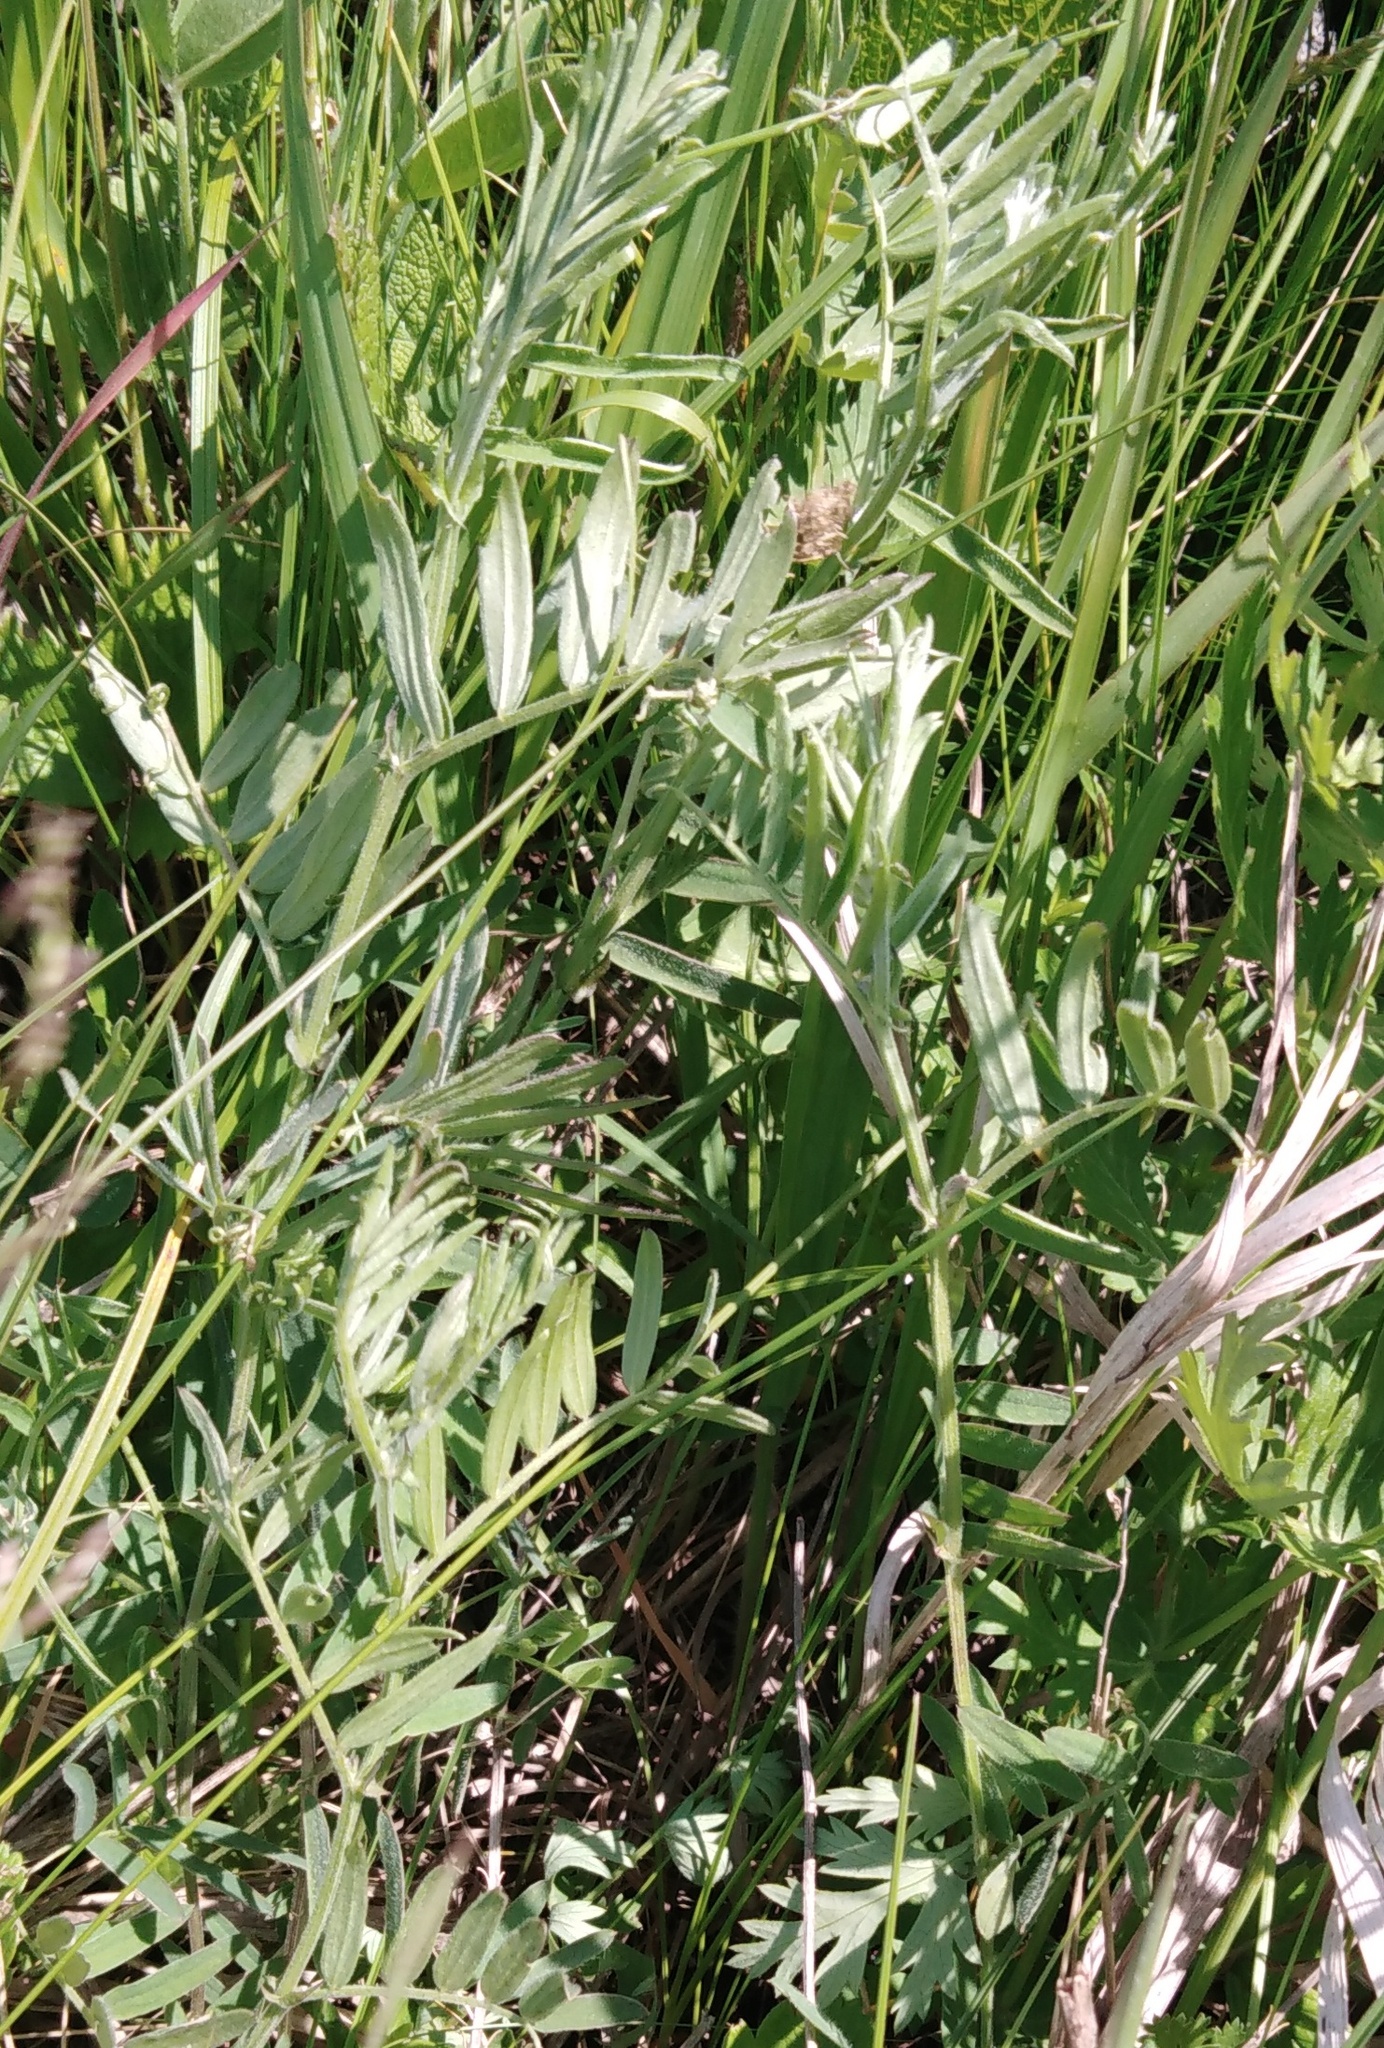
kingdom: Plantae
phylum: Tracheophyta
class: Magnoliopsida
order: Fabales
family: Fabaceae
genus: Vicia
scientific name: Vicia cracca
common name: Bird vetch
